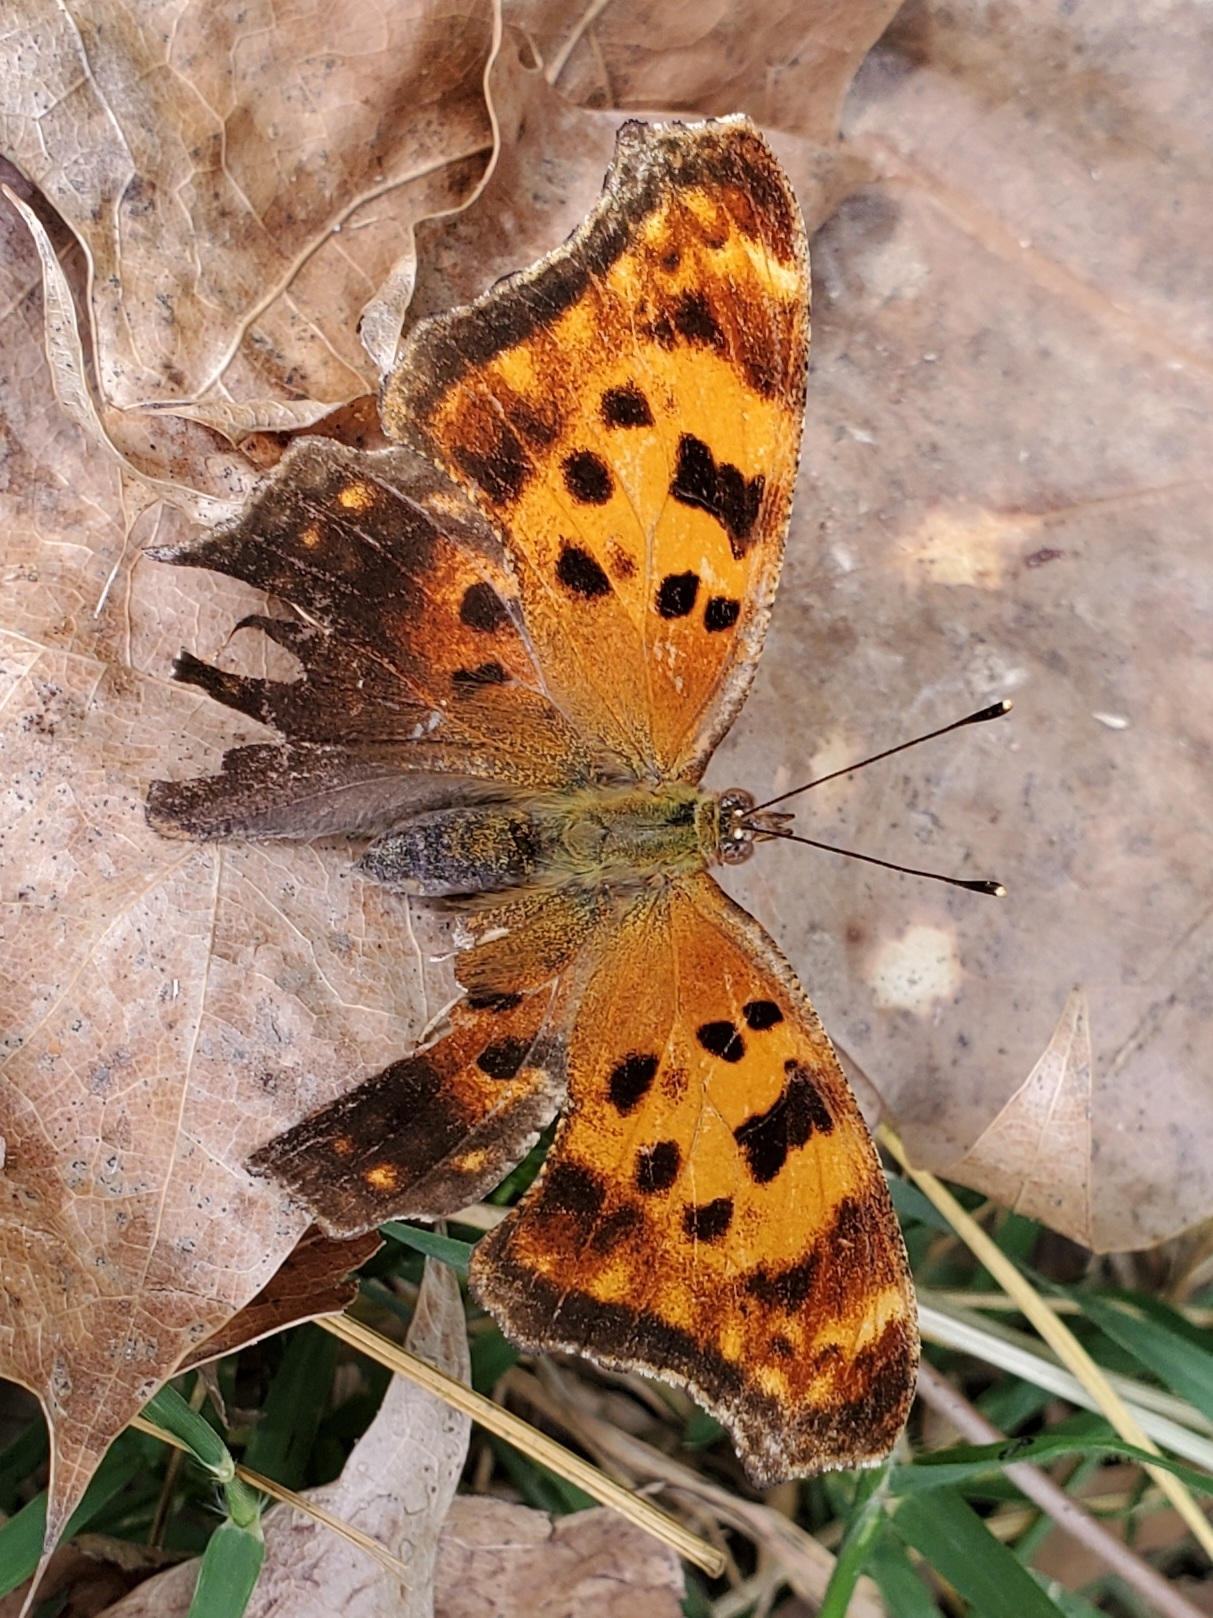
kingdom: Animalia
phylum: Arthropoda
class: Insecta
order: Lepidoptera
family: Nymphalidae
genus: Polygonia
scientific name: Polygonia comma
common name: Eastern comma
